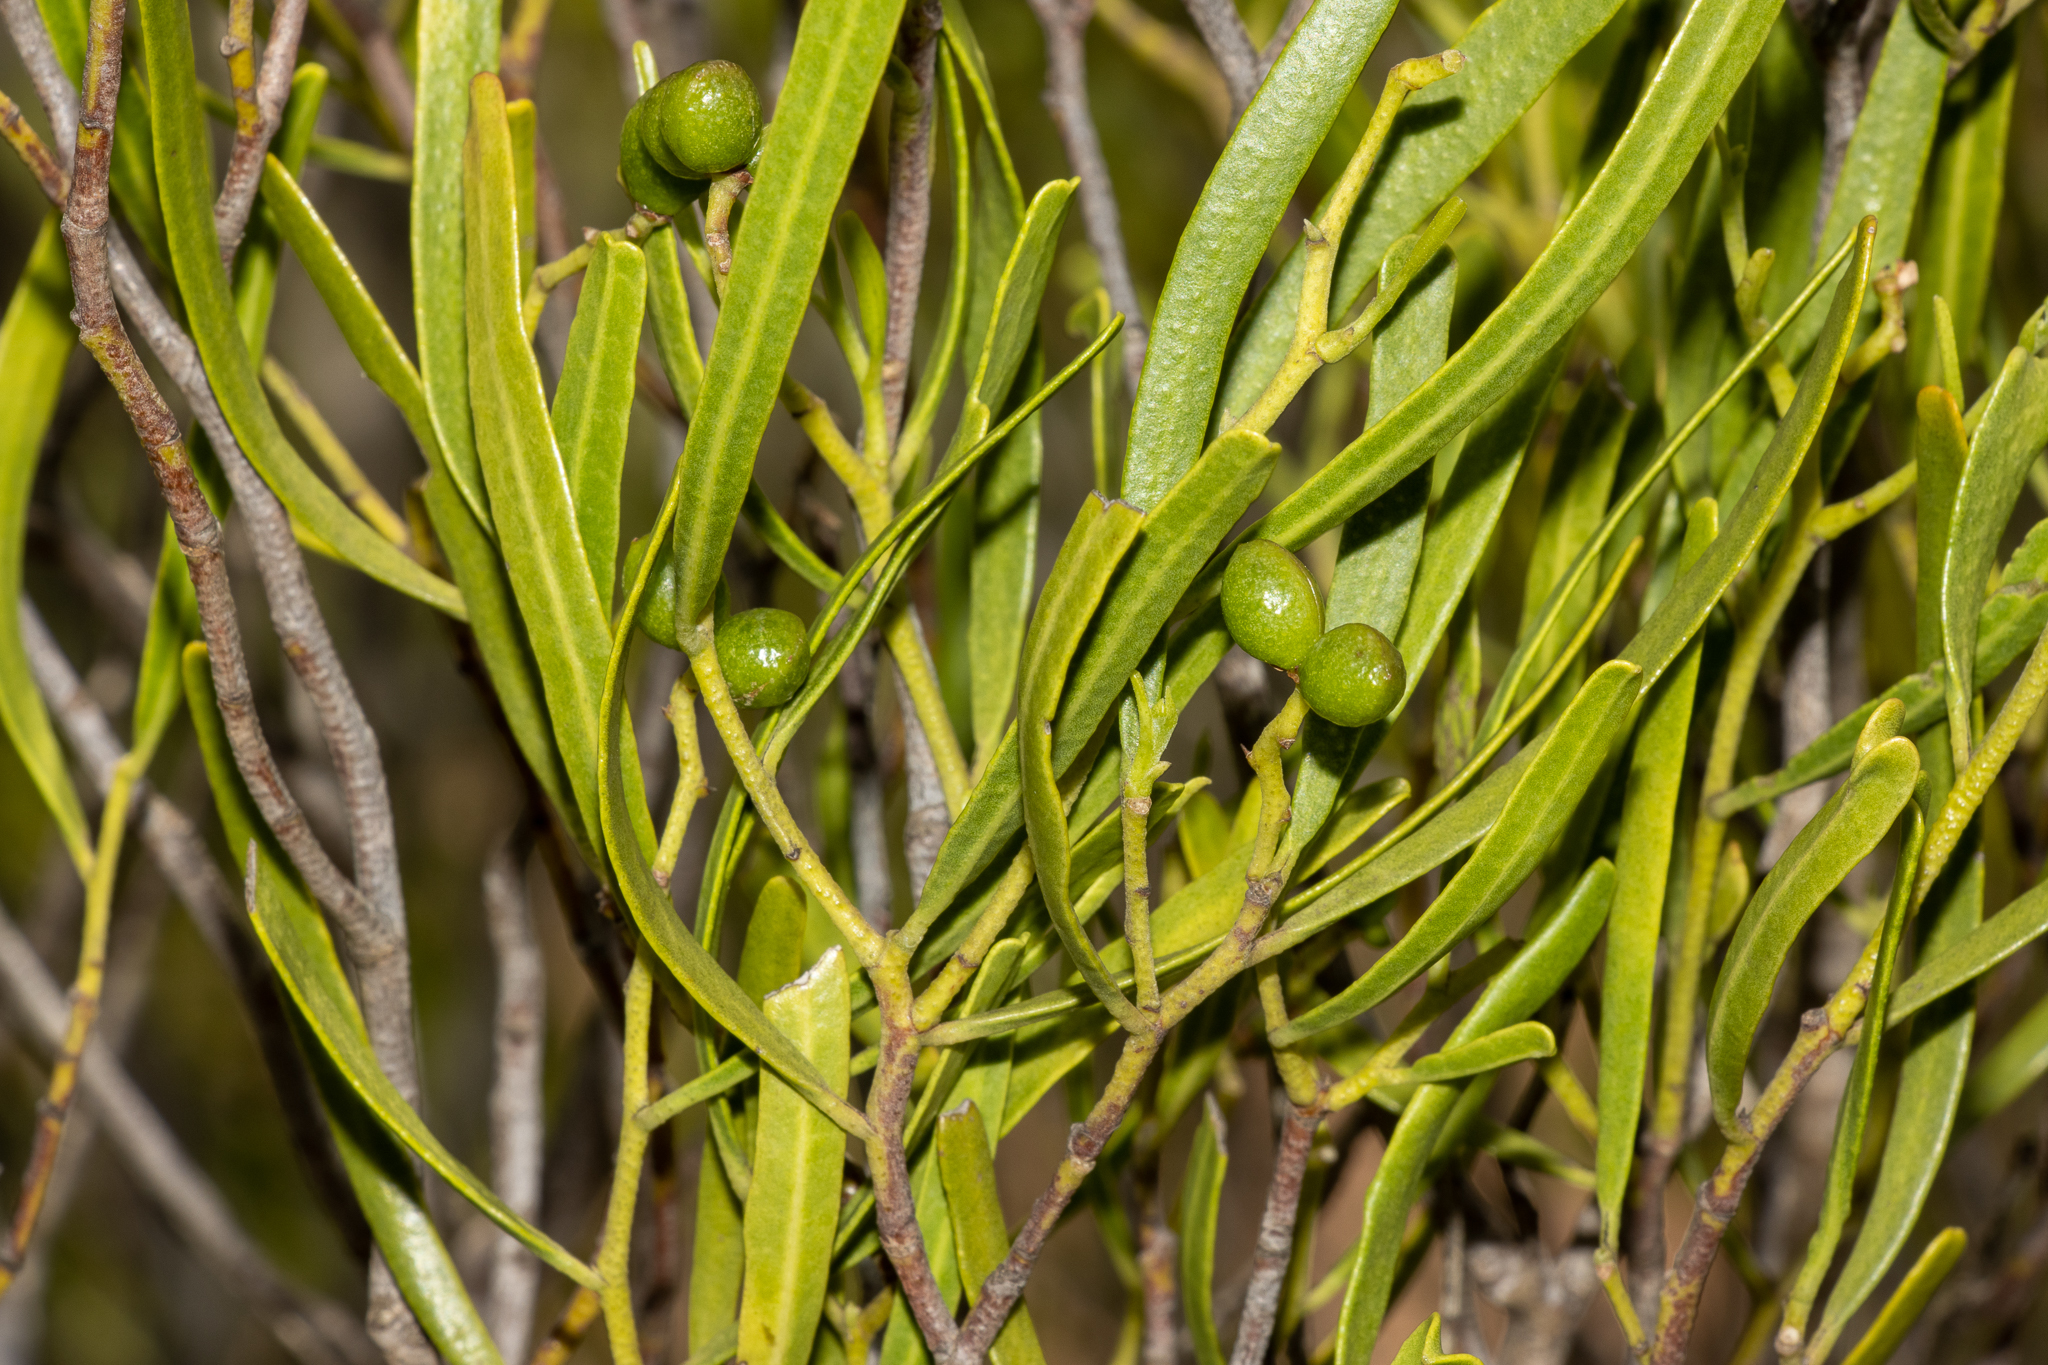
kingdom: Plantae
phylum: Tracheophyta
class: Magnoliopsida
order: Sapindales
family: Rutaceae
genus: Geijera
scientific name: Geijera linearifolia
